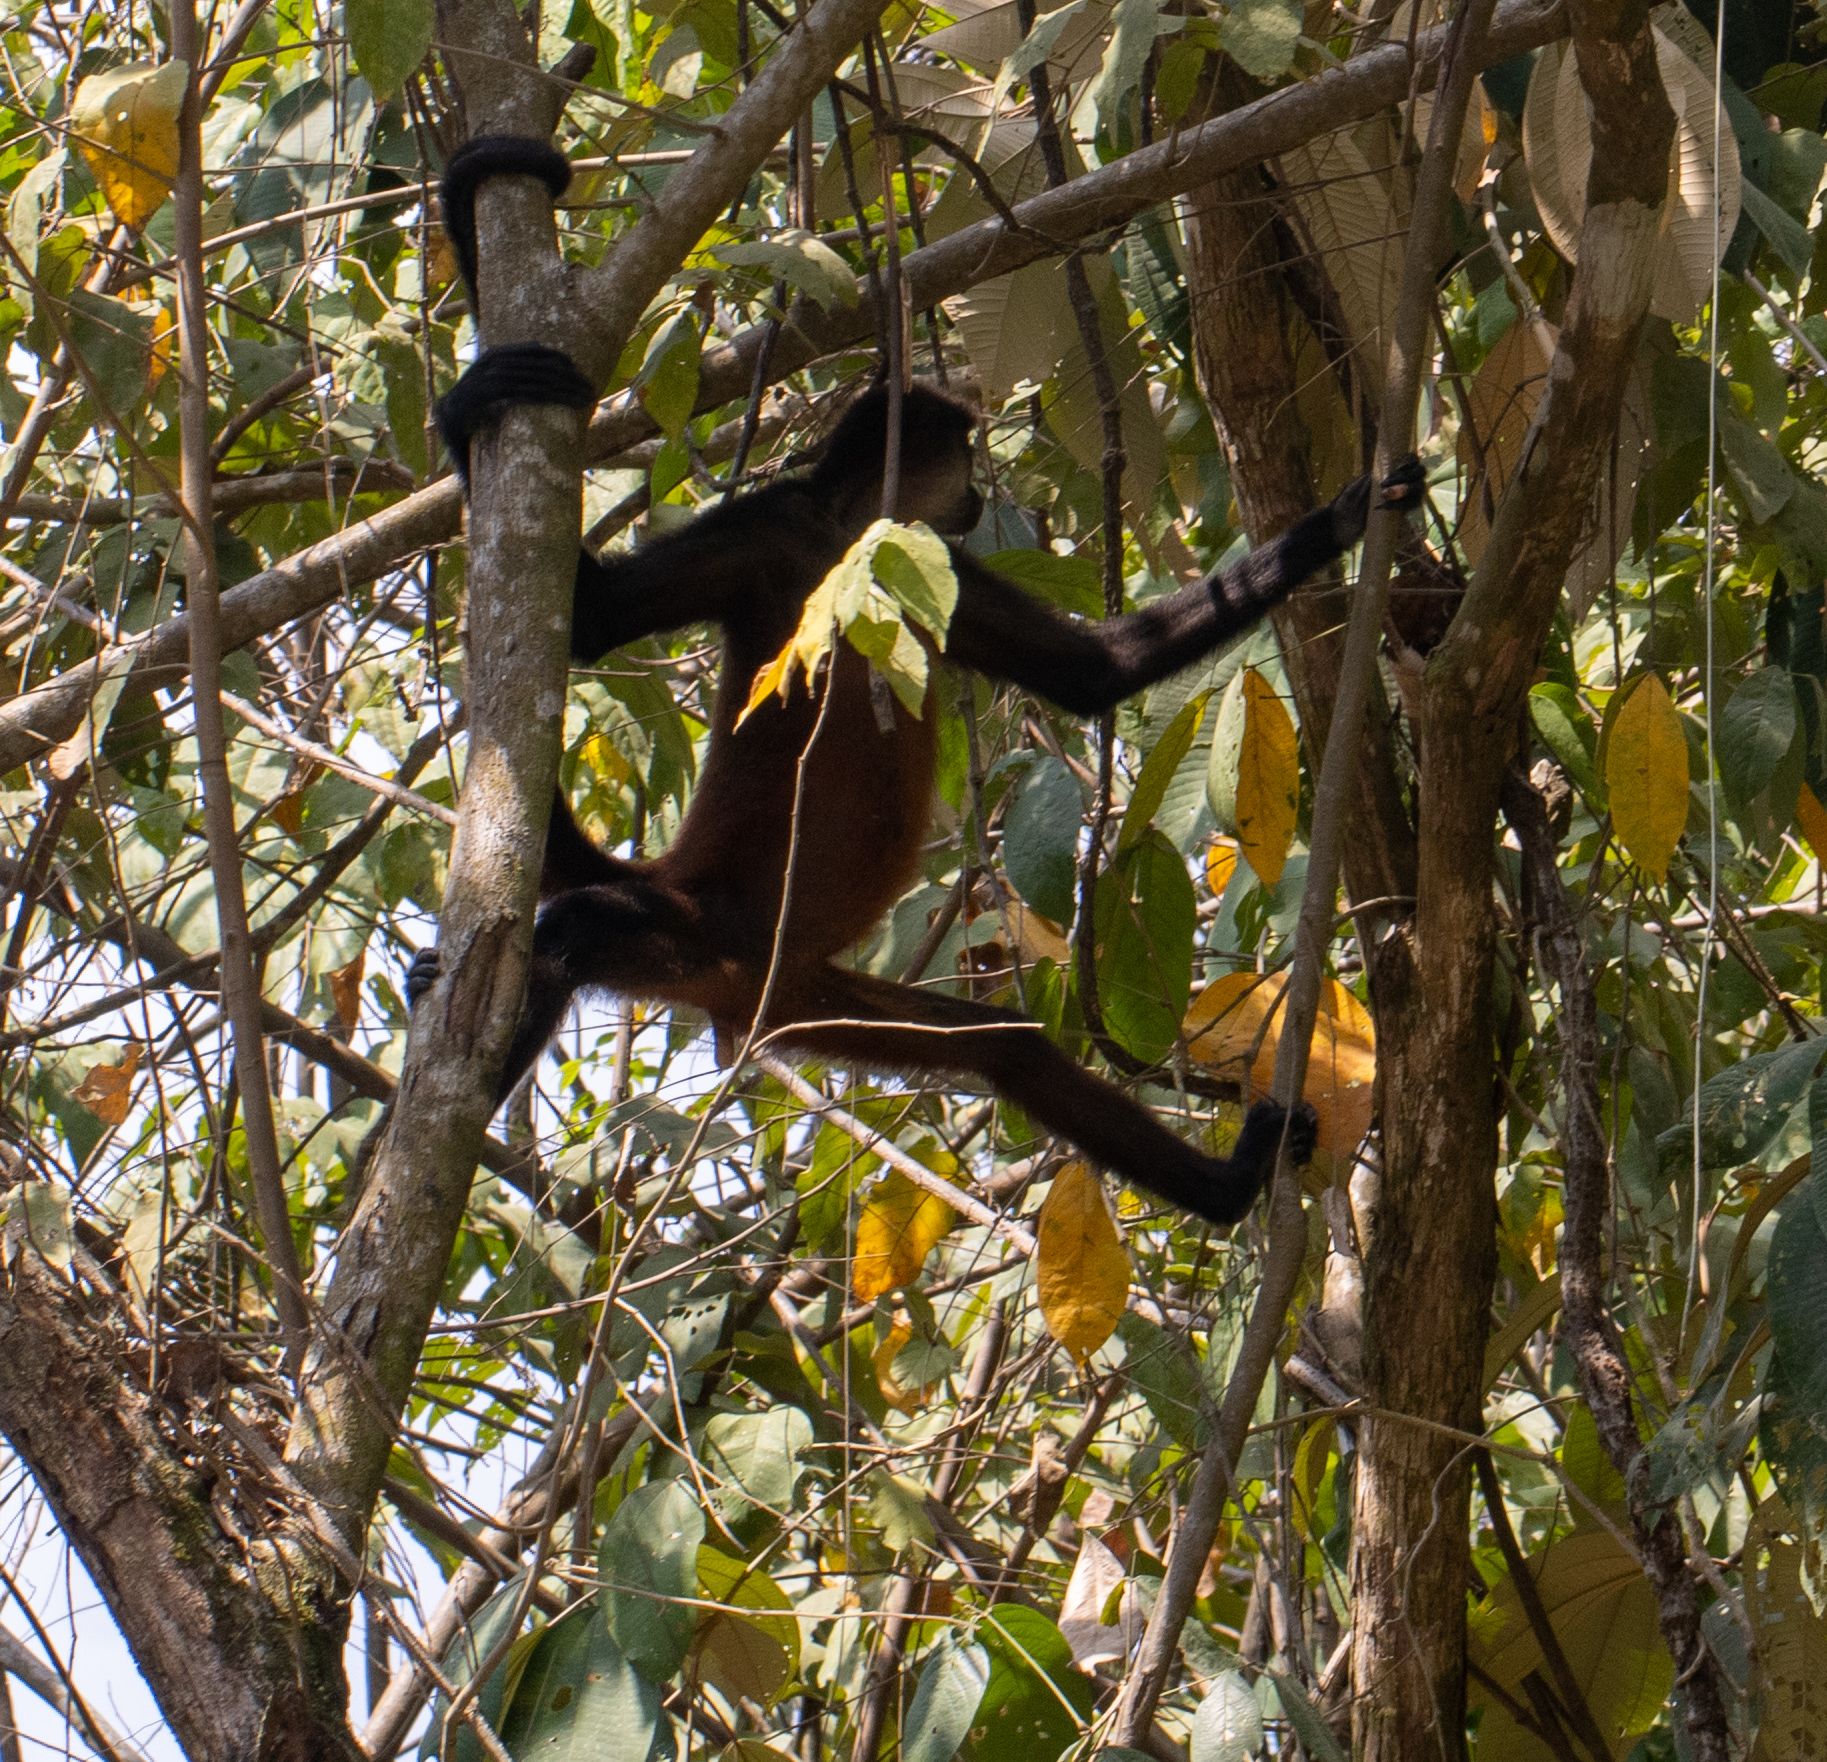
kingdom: Animalia
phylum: Chordata
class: Mammalia
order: Primates
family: Atelidae
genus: Ateles
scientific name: Ateles geoffroyi
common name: Black-handed spider monkey
